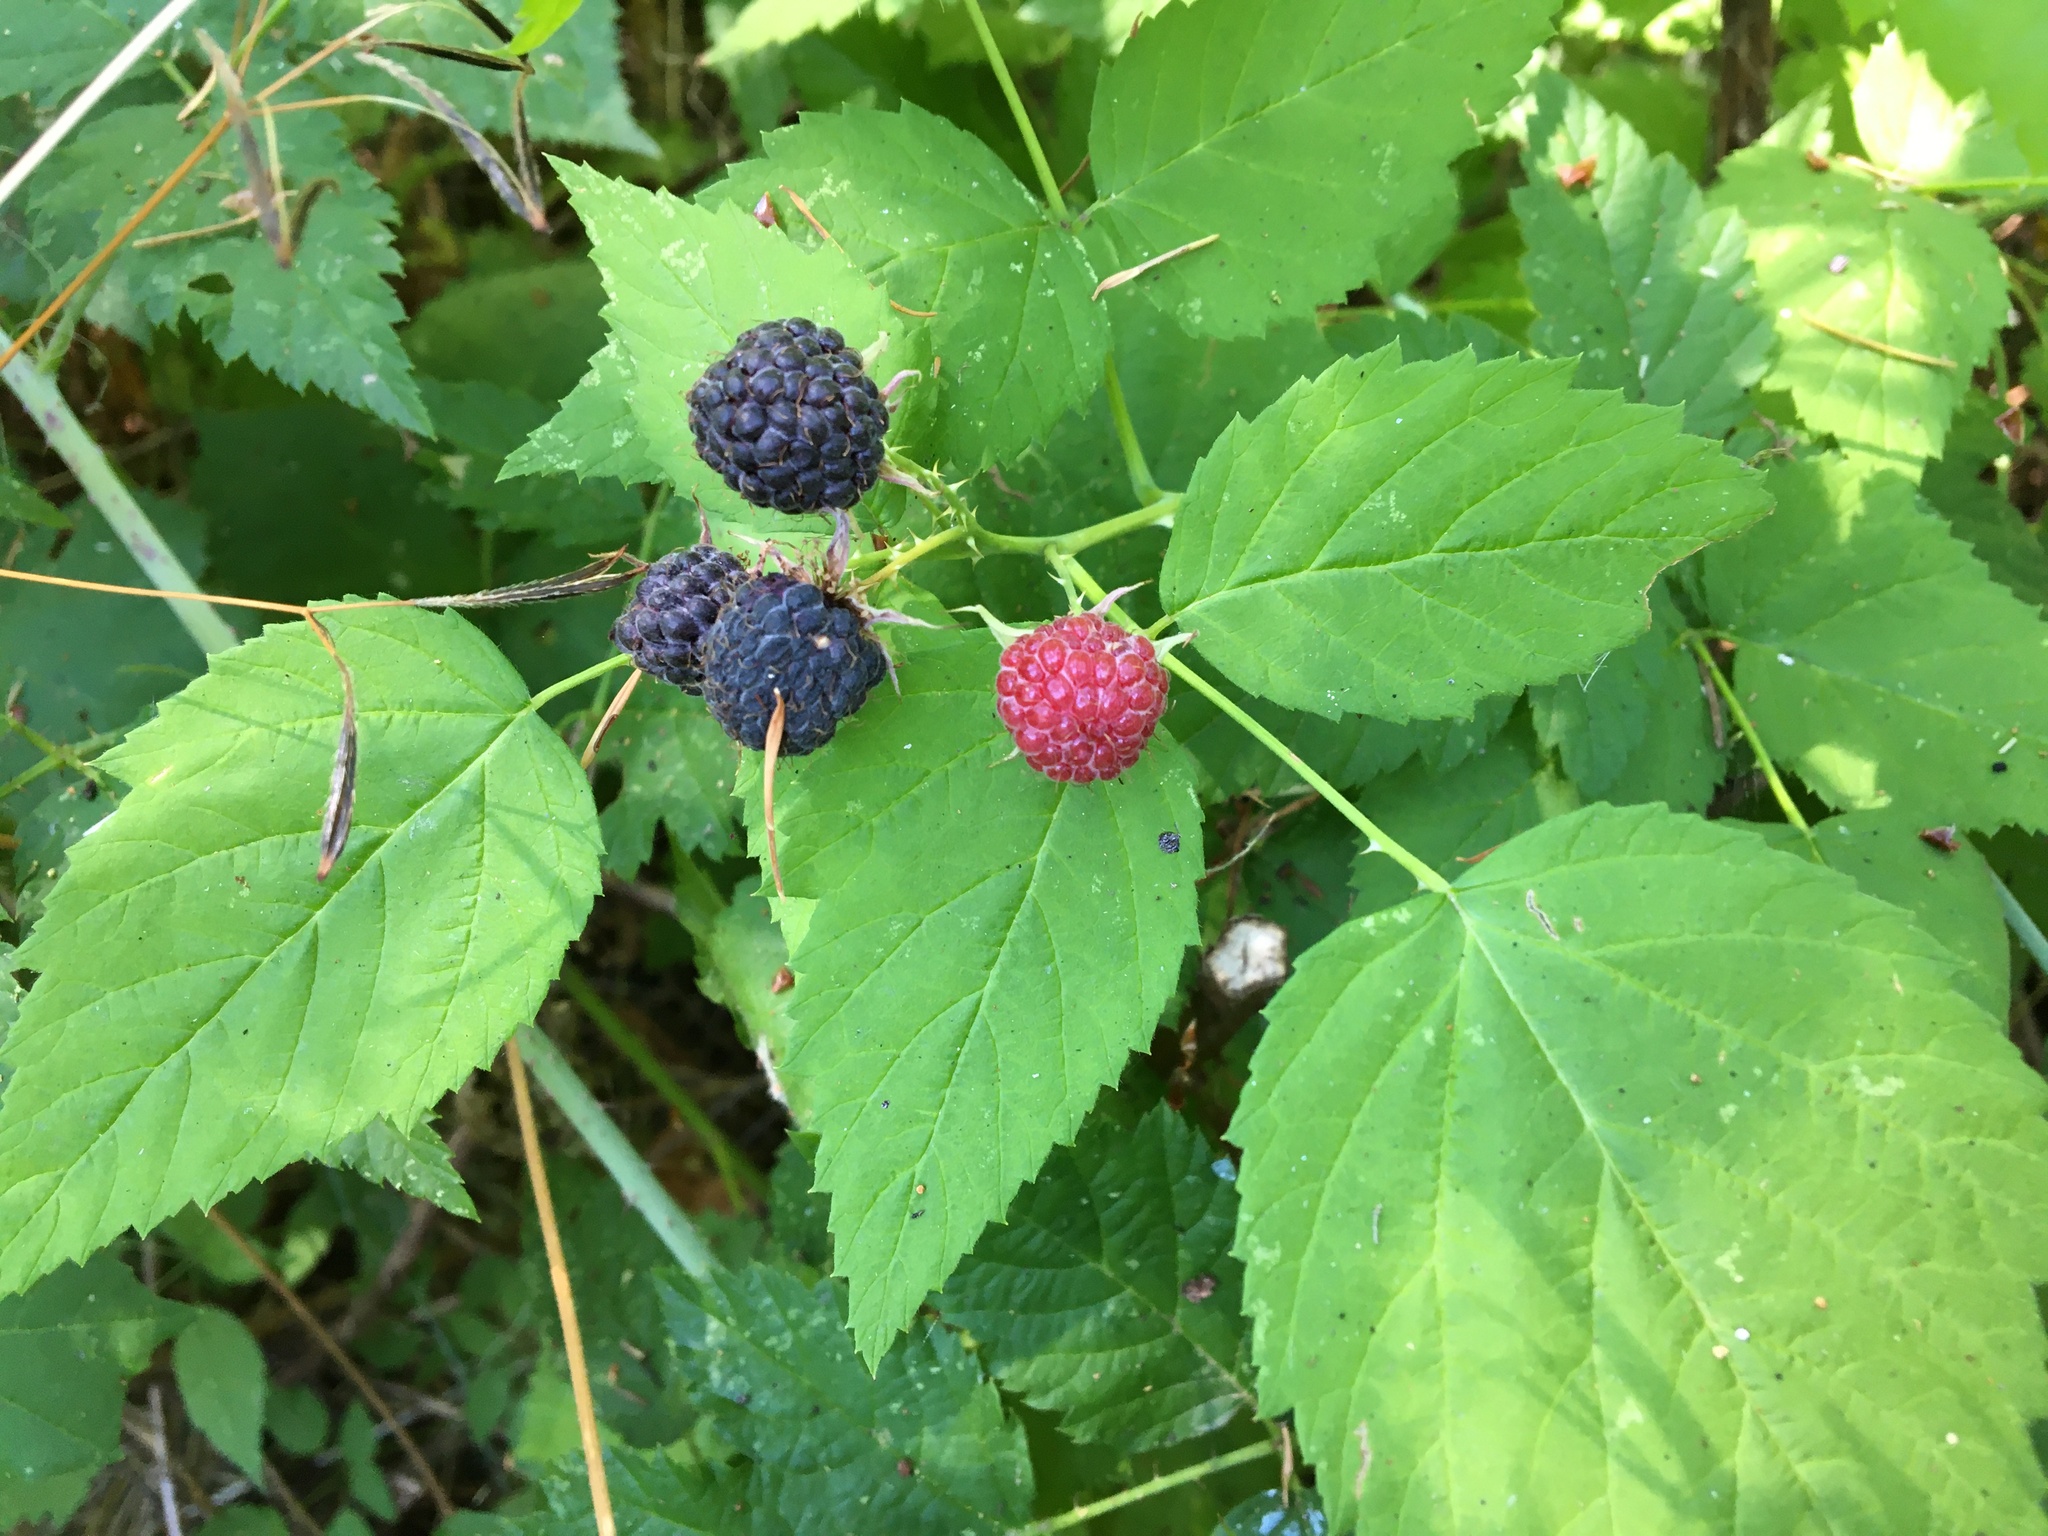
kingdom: Plantae
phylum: Tracheophyta
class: Magnoliopsida
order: Rosales
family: Rosaceae
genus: Rubus
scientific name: Rubus leucodermis
